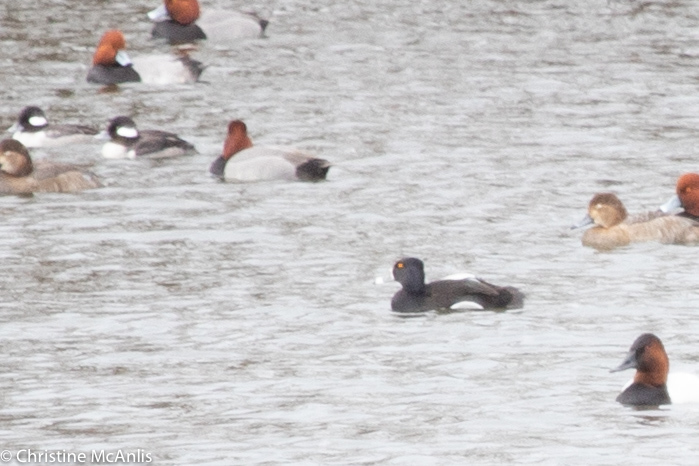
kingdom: Animalia
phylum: Chordata
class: Aves
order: Anseriformes
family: Anatidae
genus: Aythya
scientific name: Aythya collaris
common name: Ring-necked duck
